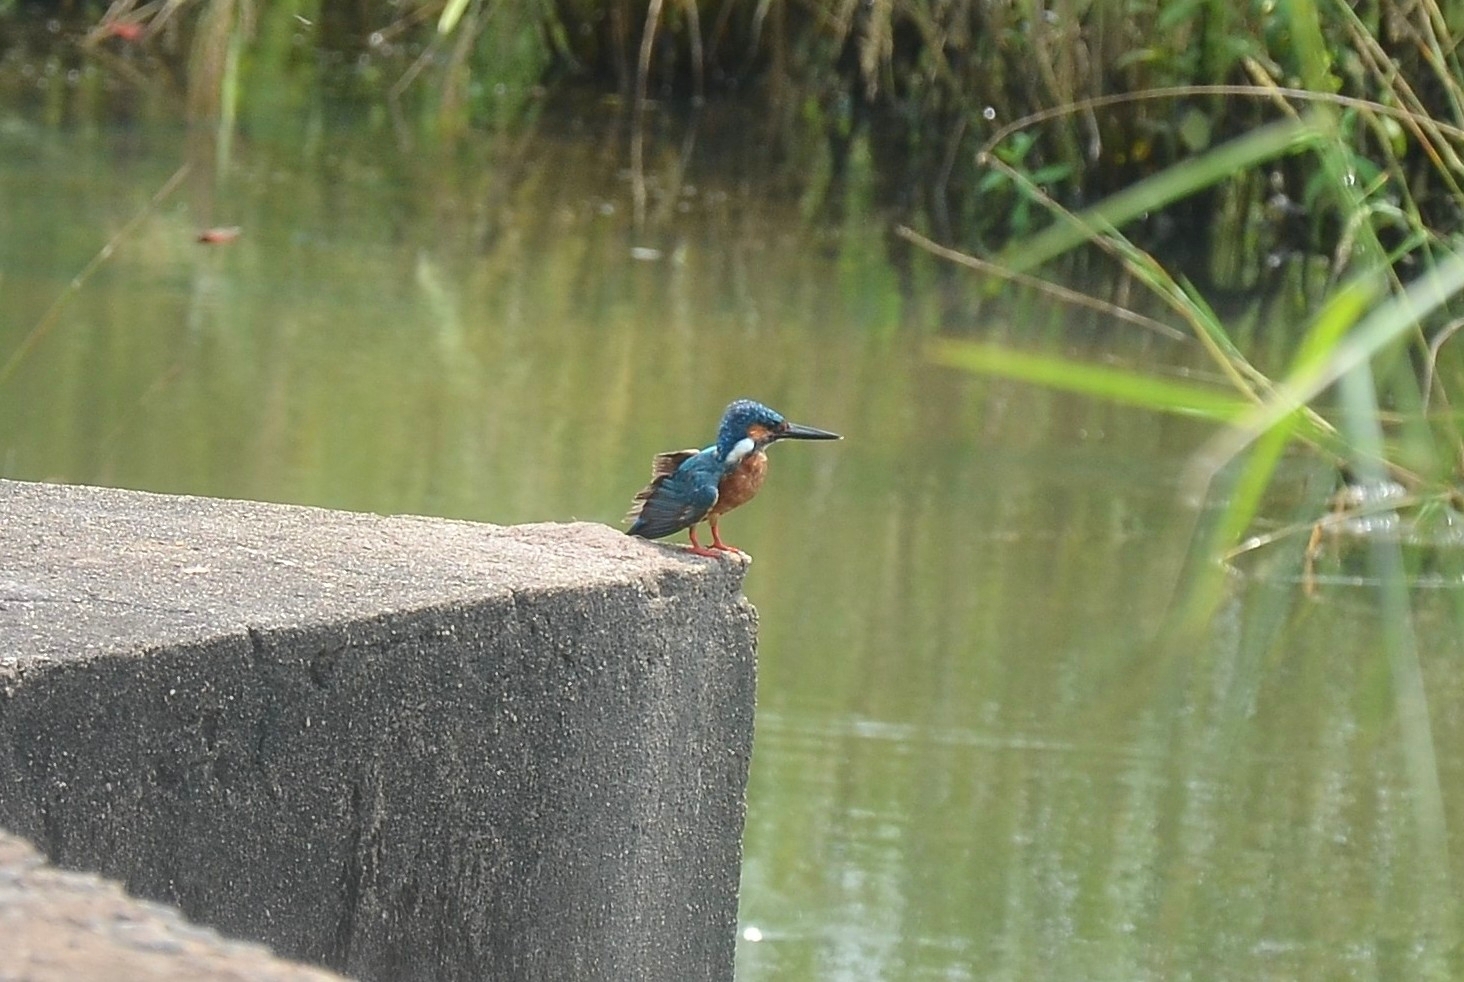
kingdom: Animalia
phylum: Chordata
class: Aves
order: Coraciiformes
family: Alcedinidae
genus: Alcedo
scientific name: Alcedo atthis
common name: Common kingfisher
